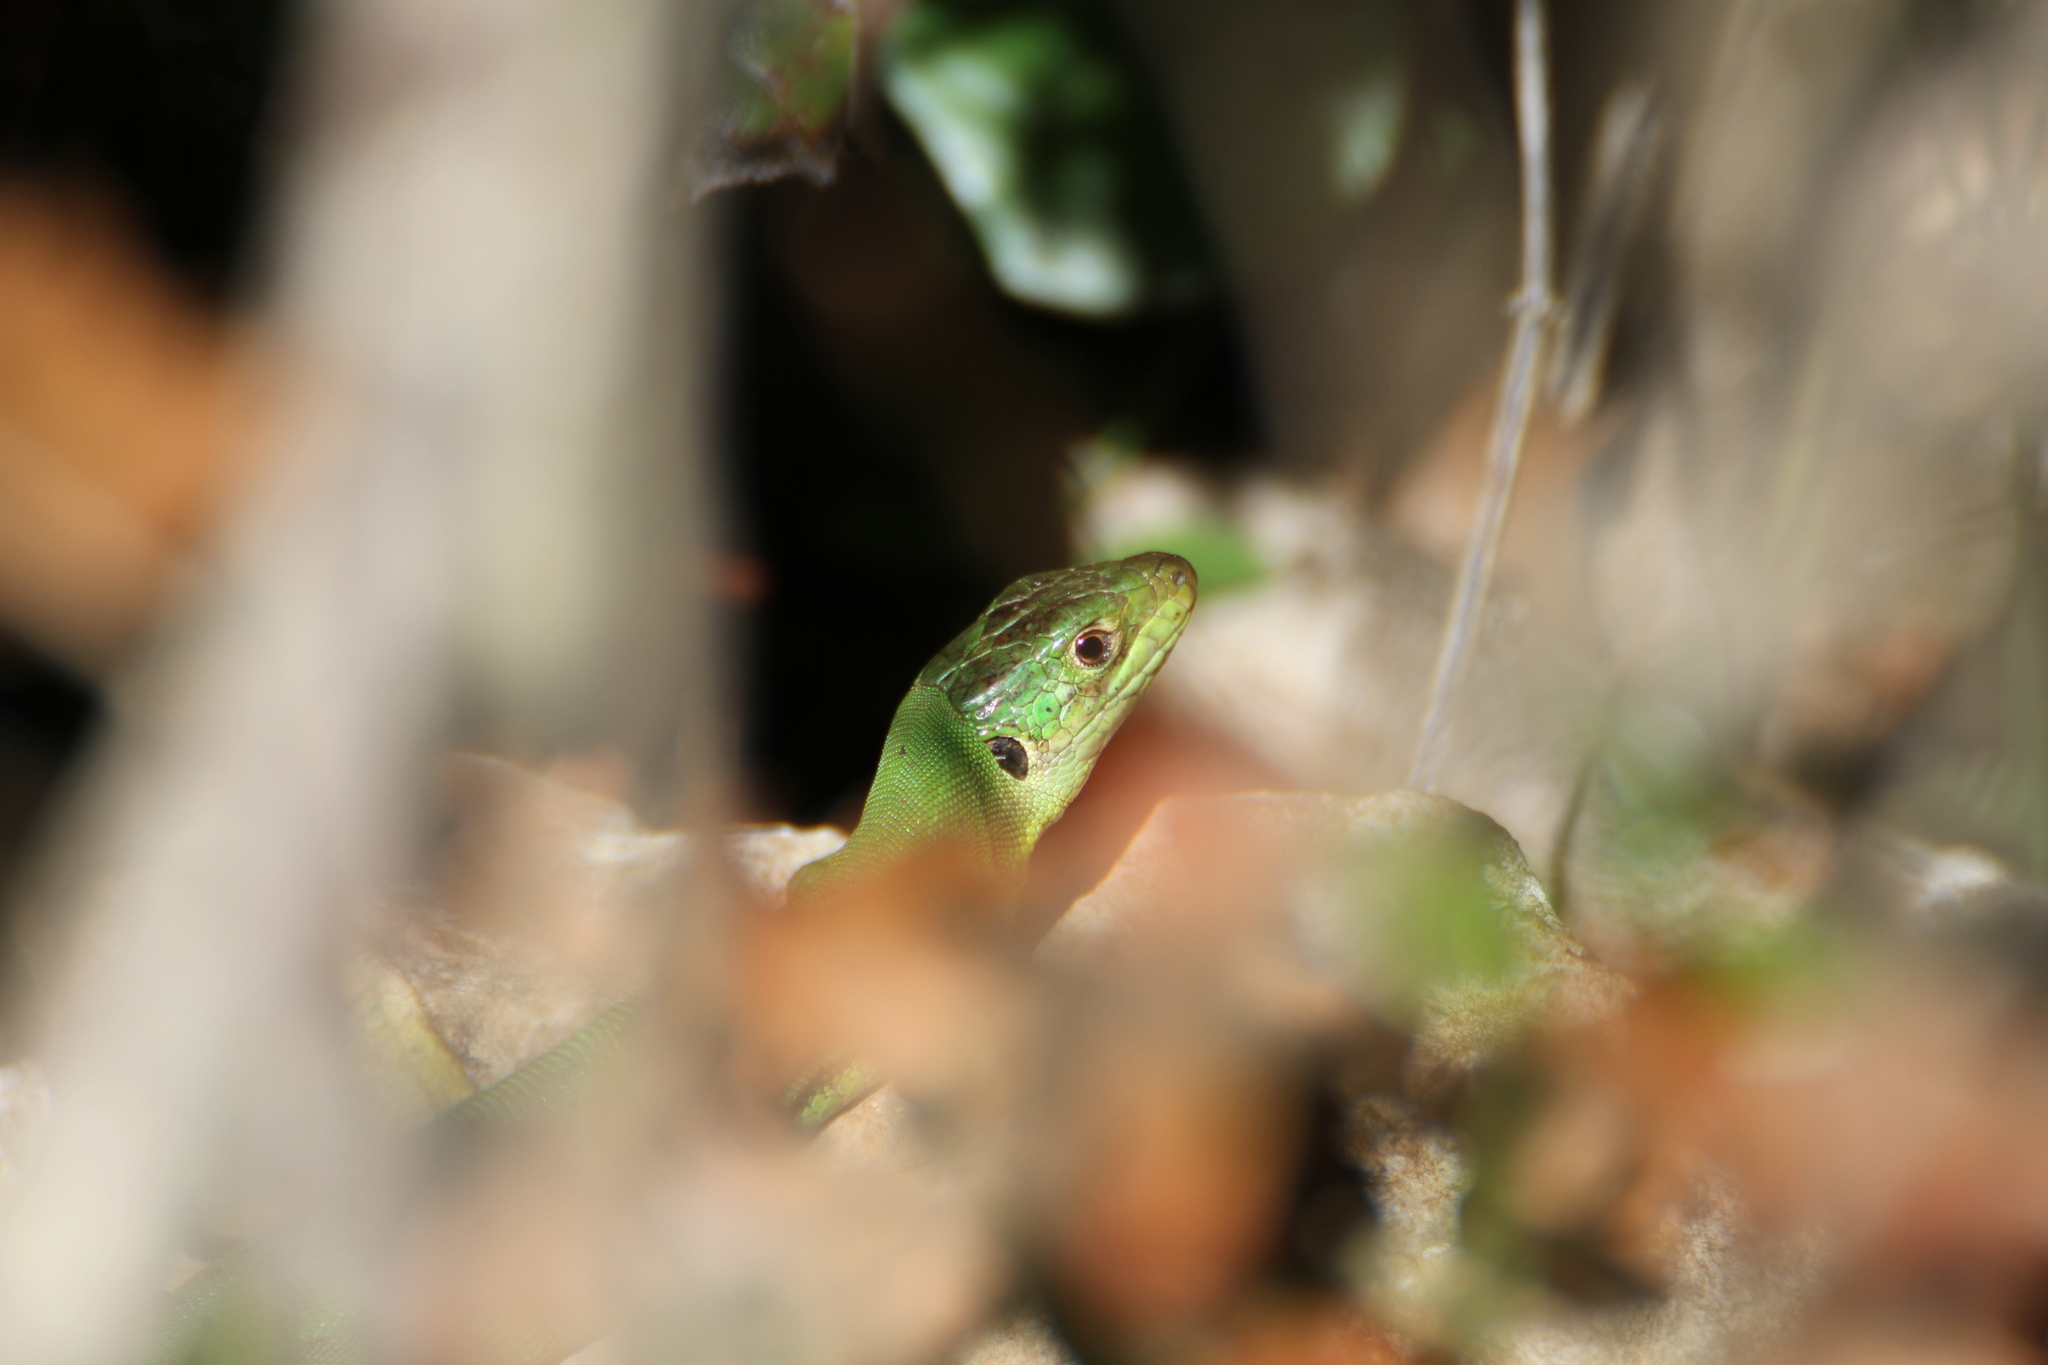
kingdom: Animalia
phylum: Chordata
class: Squamata
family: Lacertidae
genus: Lacerta
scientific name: Lacerta bilineata
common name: Western green lizard
